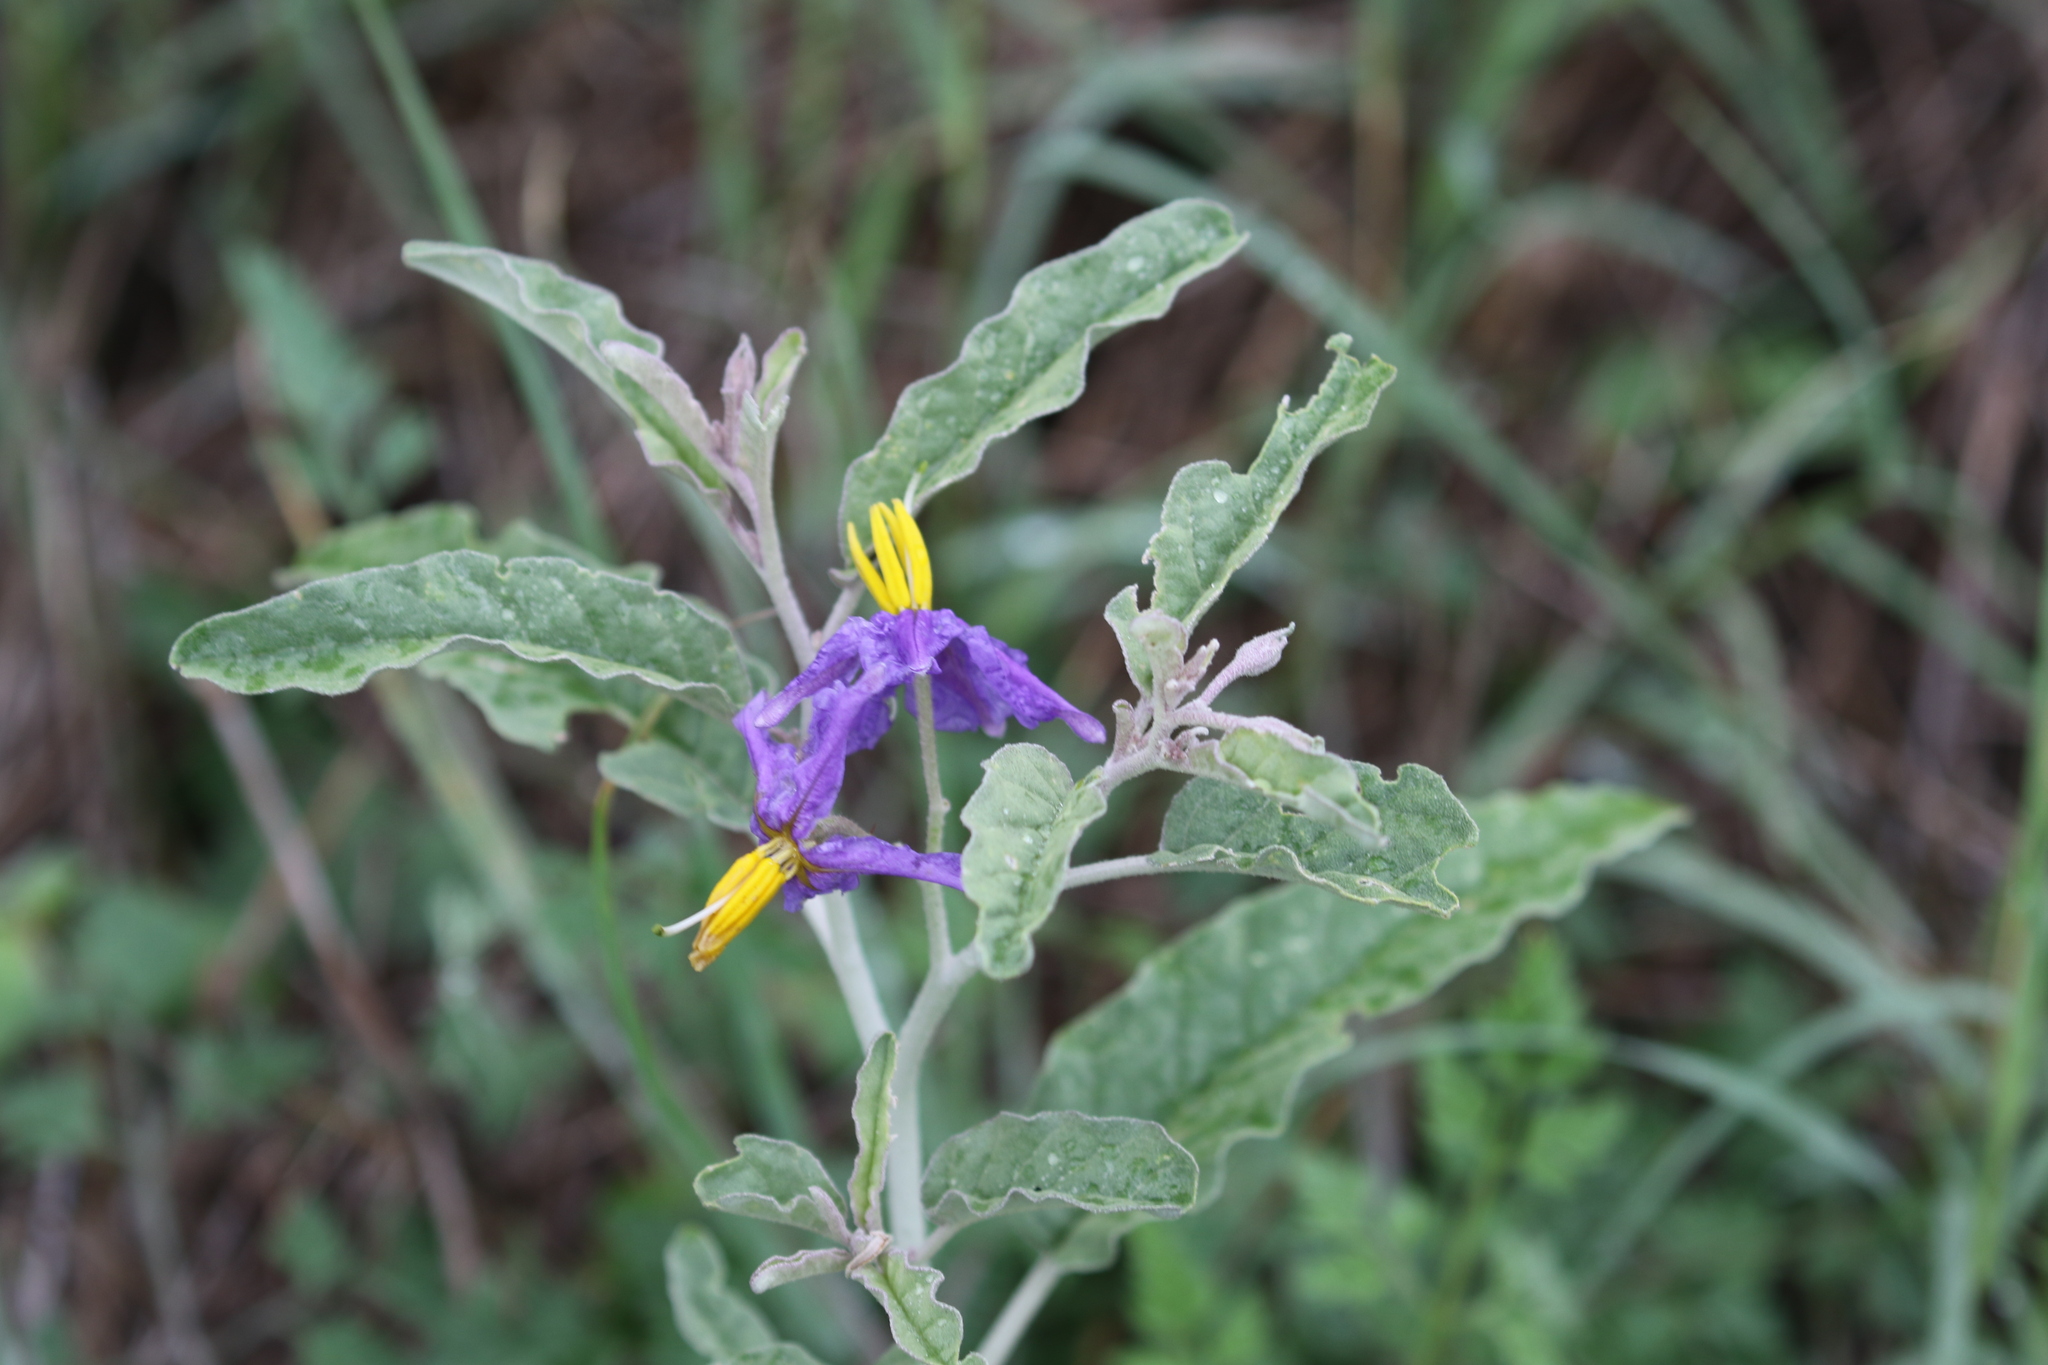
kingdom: Plantae
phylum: Tracheophyta
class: Magnoliopsida
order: Solanales
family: Solanaceae
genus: Solanum
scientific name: Solanum elaeagnifolium
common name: Silverleaf nightshade
